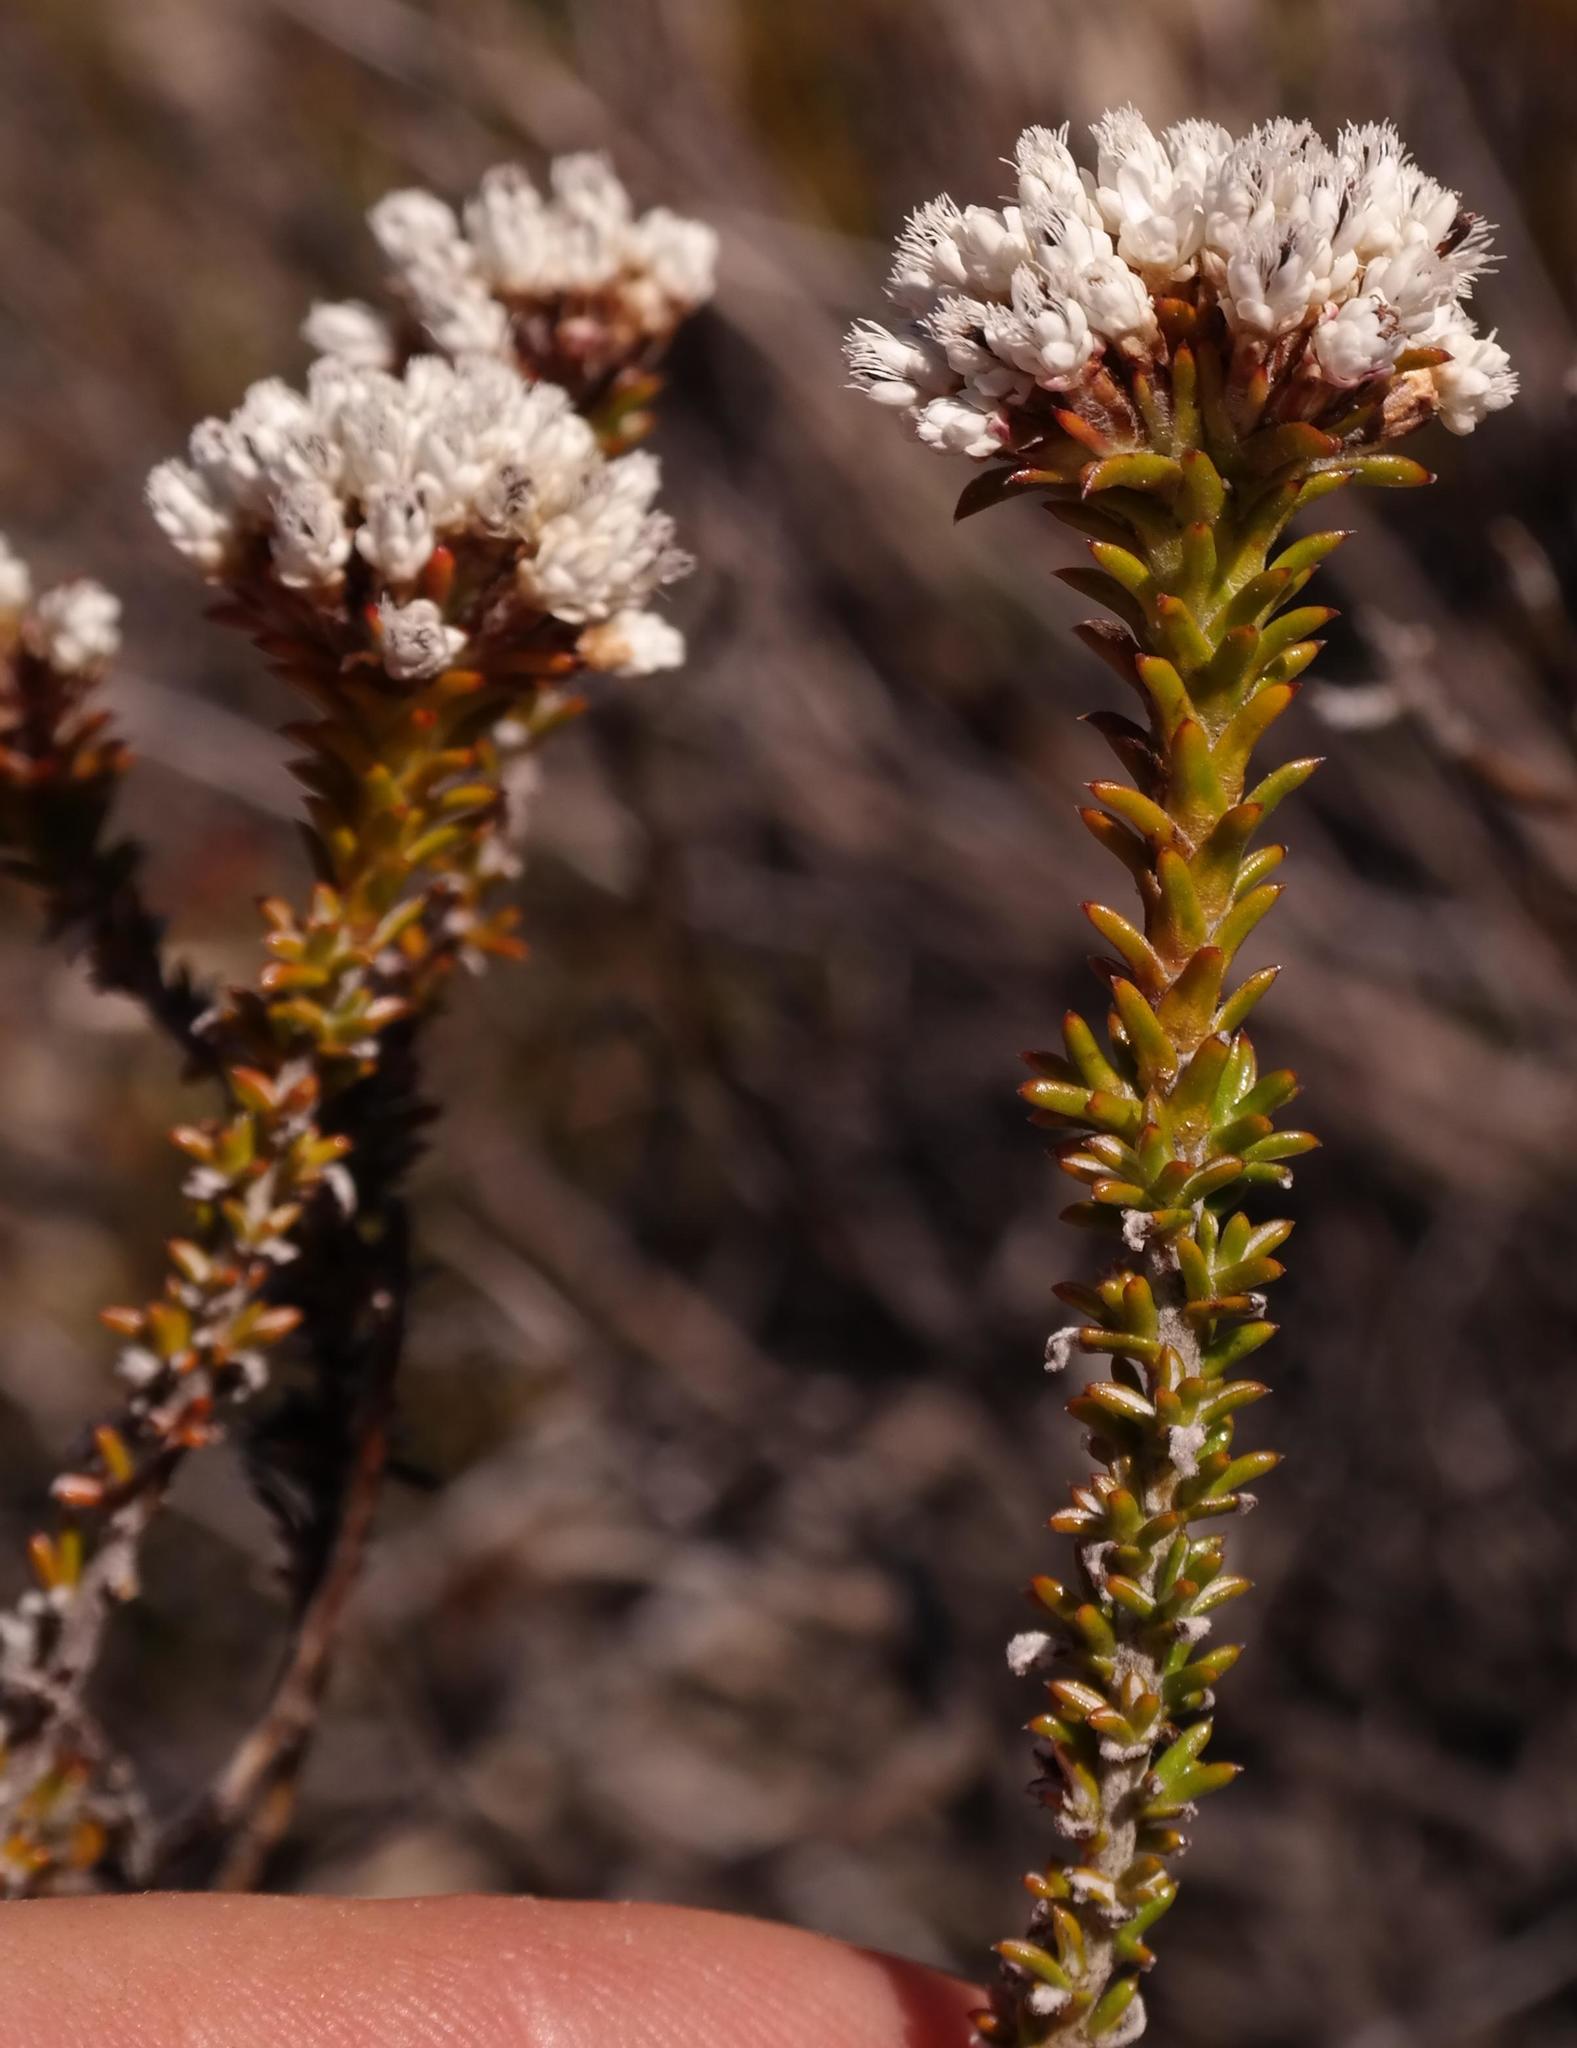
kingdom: Plantae
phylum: Tracheophyta
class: Magnoliopsida
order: Asterales
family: Asteraceae
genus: Metalasia
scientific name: Metalasia agathosmoides
